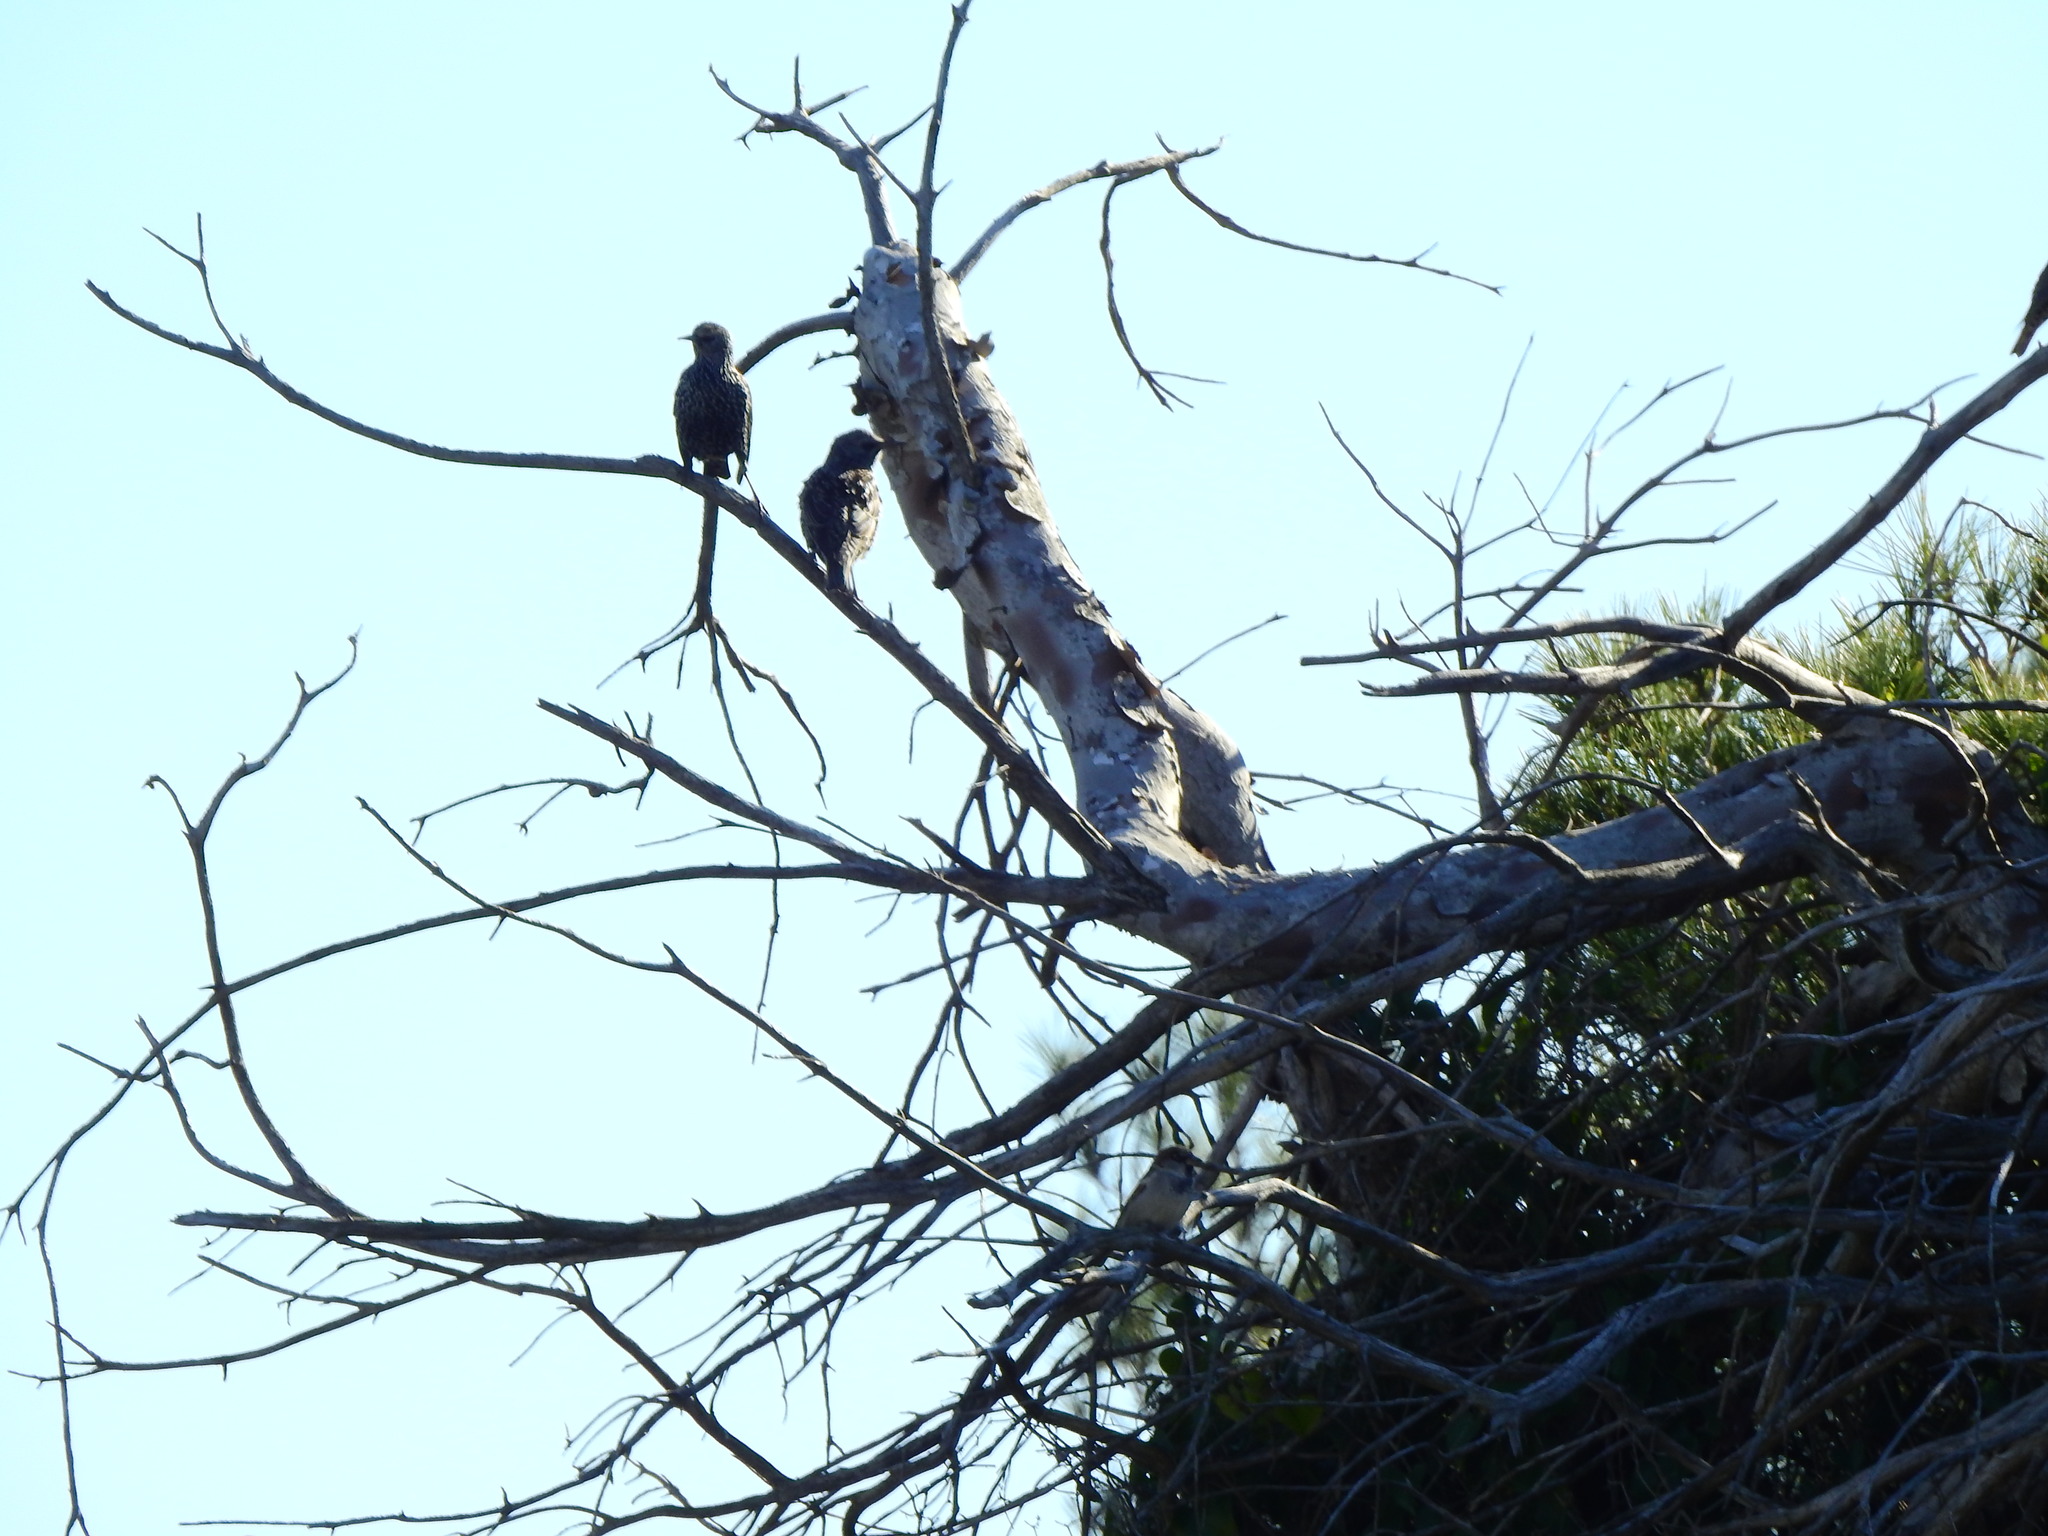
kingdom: Animalia
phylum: Chordata
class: Aves
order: Passeriformes
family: Sturnidae
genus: Sturnus
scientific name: Sturnus vulgaris
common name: Common starling
